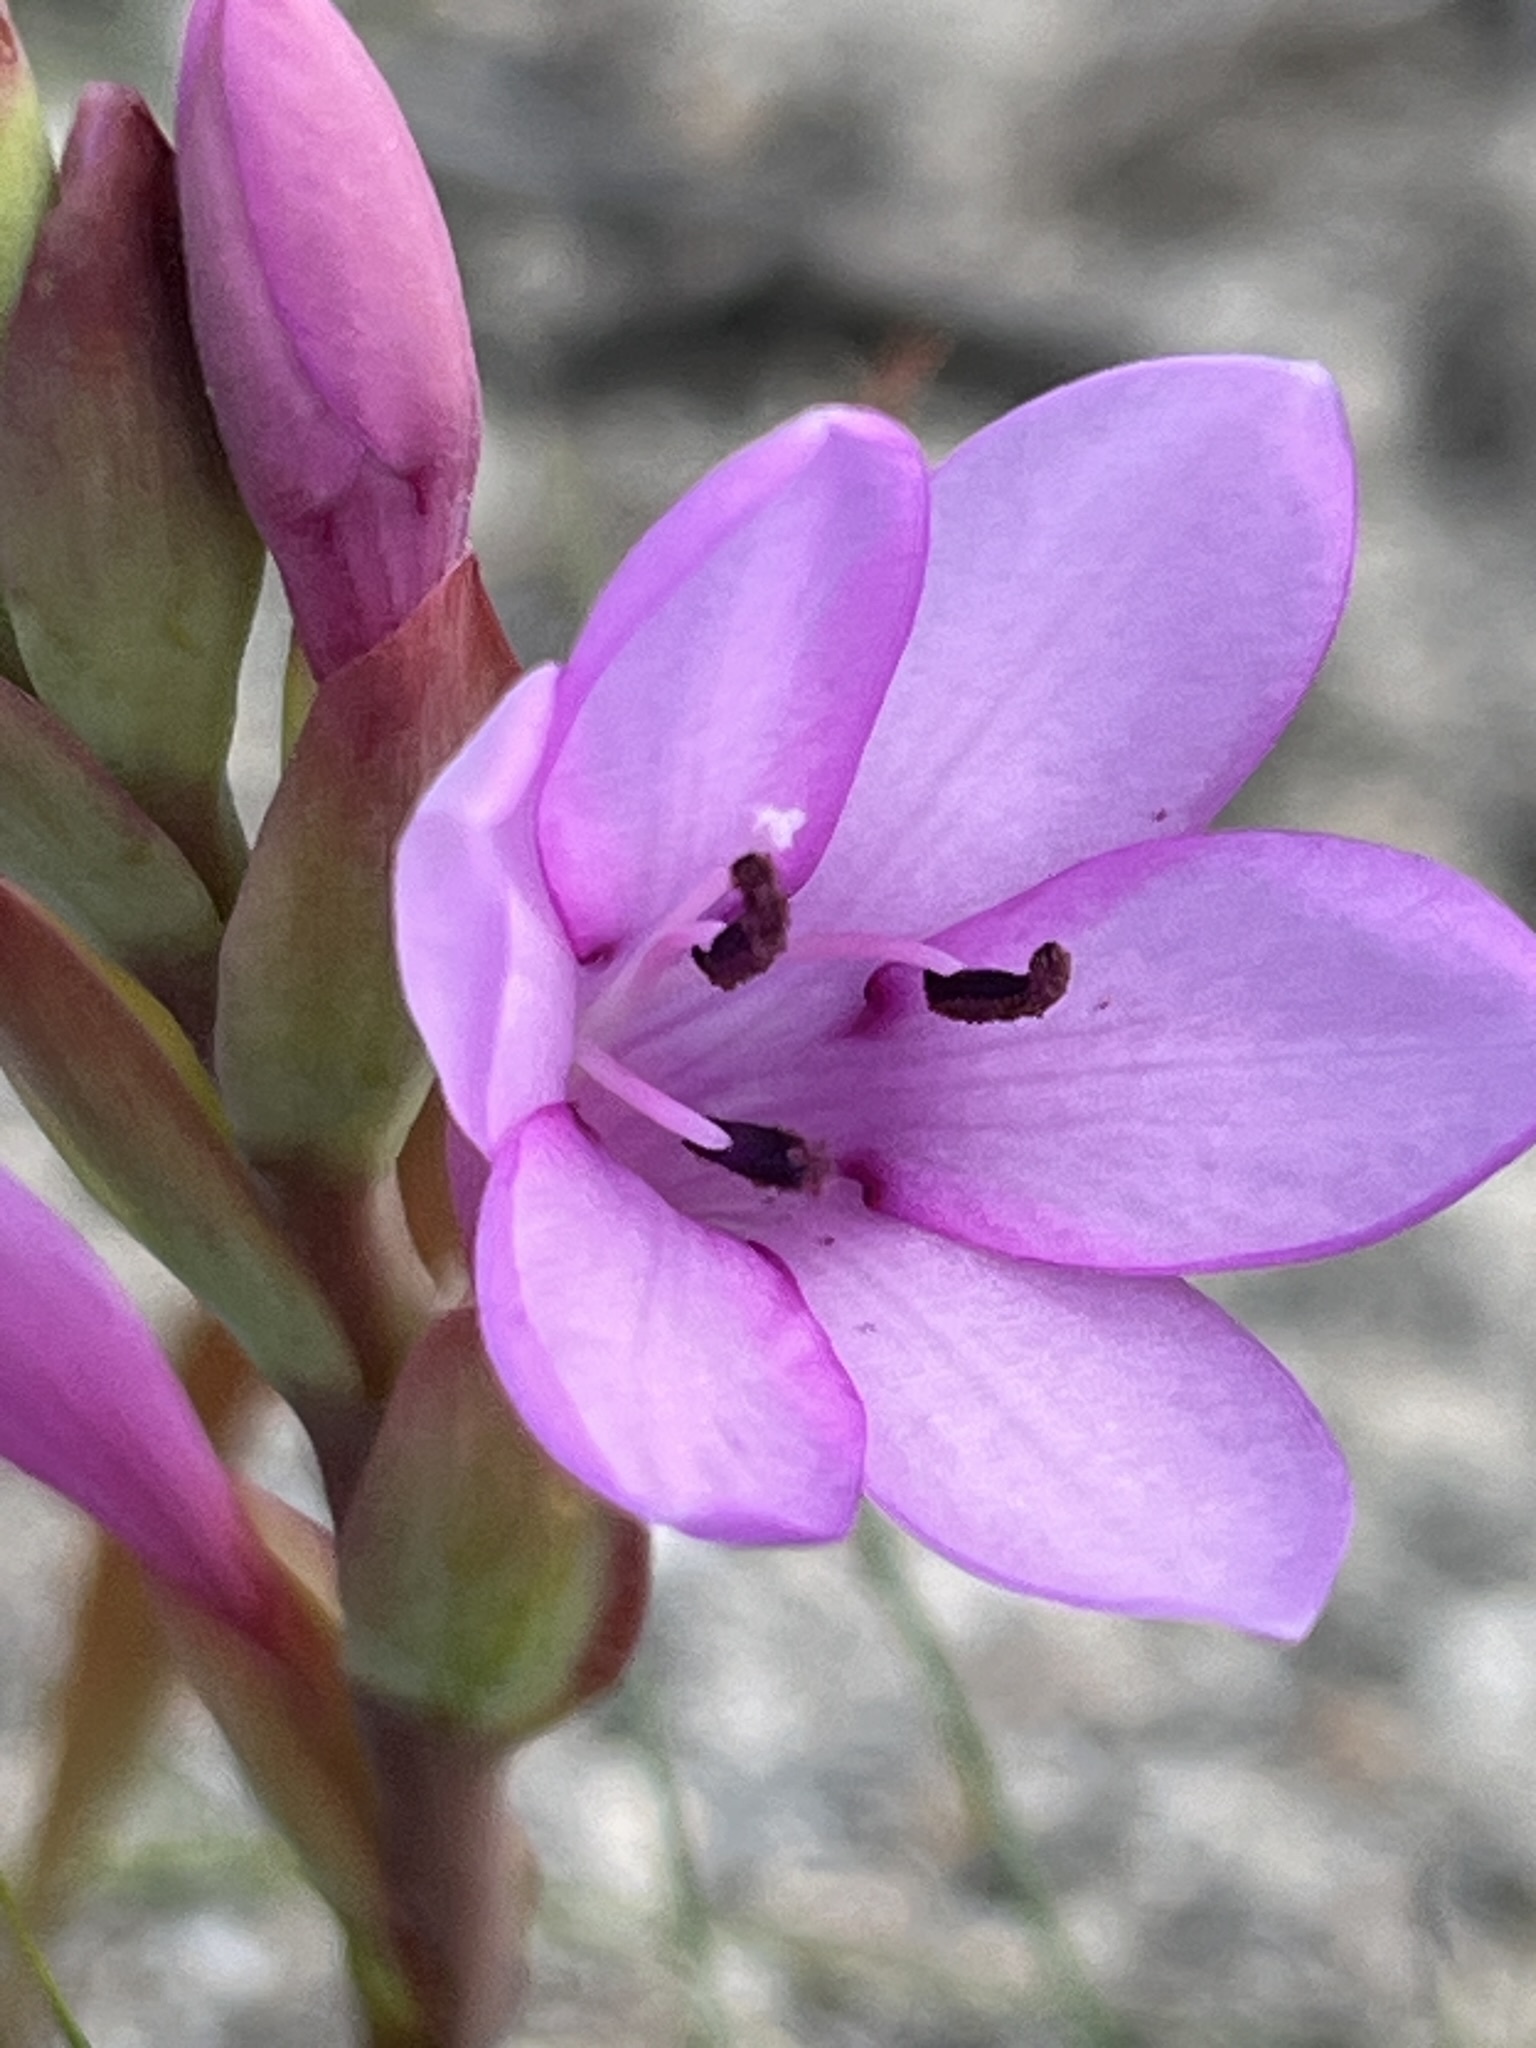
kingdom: Plantae
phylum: Tracheophyta
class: Liliopsida
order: Asparagales
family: Iridaceae
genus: Watsonia
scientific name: Watsonia humilis
